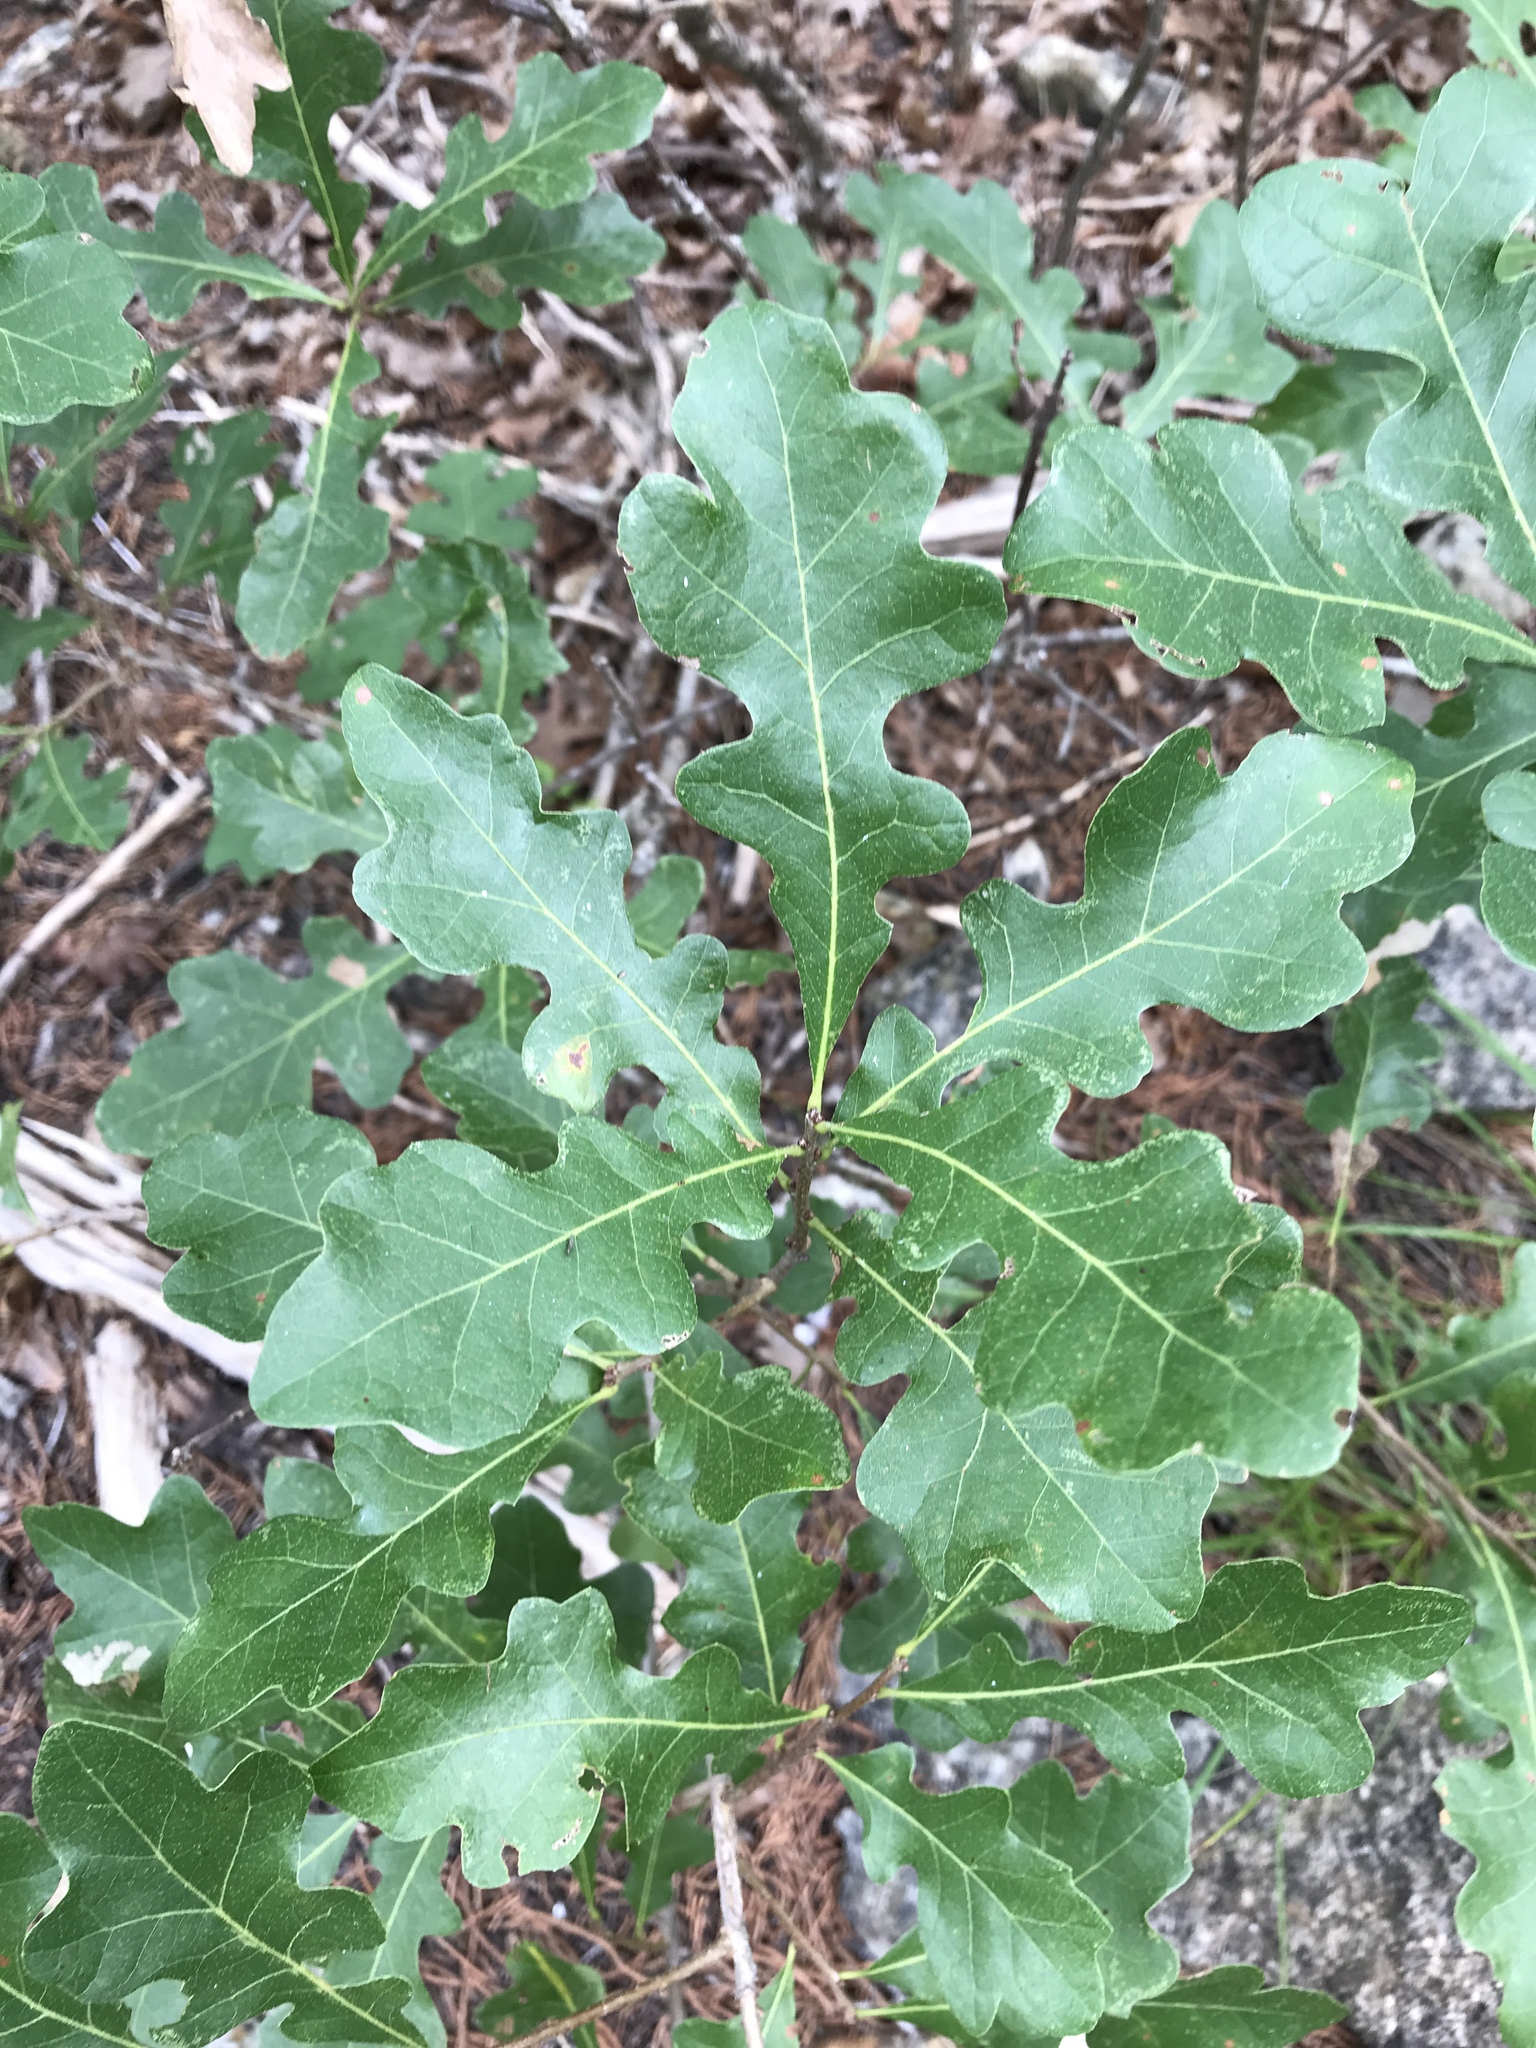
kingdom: Plantae
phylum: Tracheophyta
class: Magnoliopsida
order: Fagales
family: Fagaceae
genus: Quercus
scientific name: Quercus sinuata
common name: Durand oak
